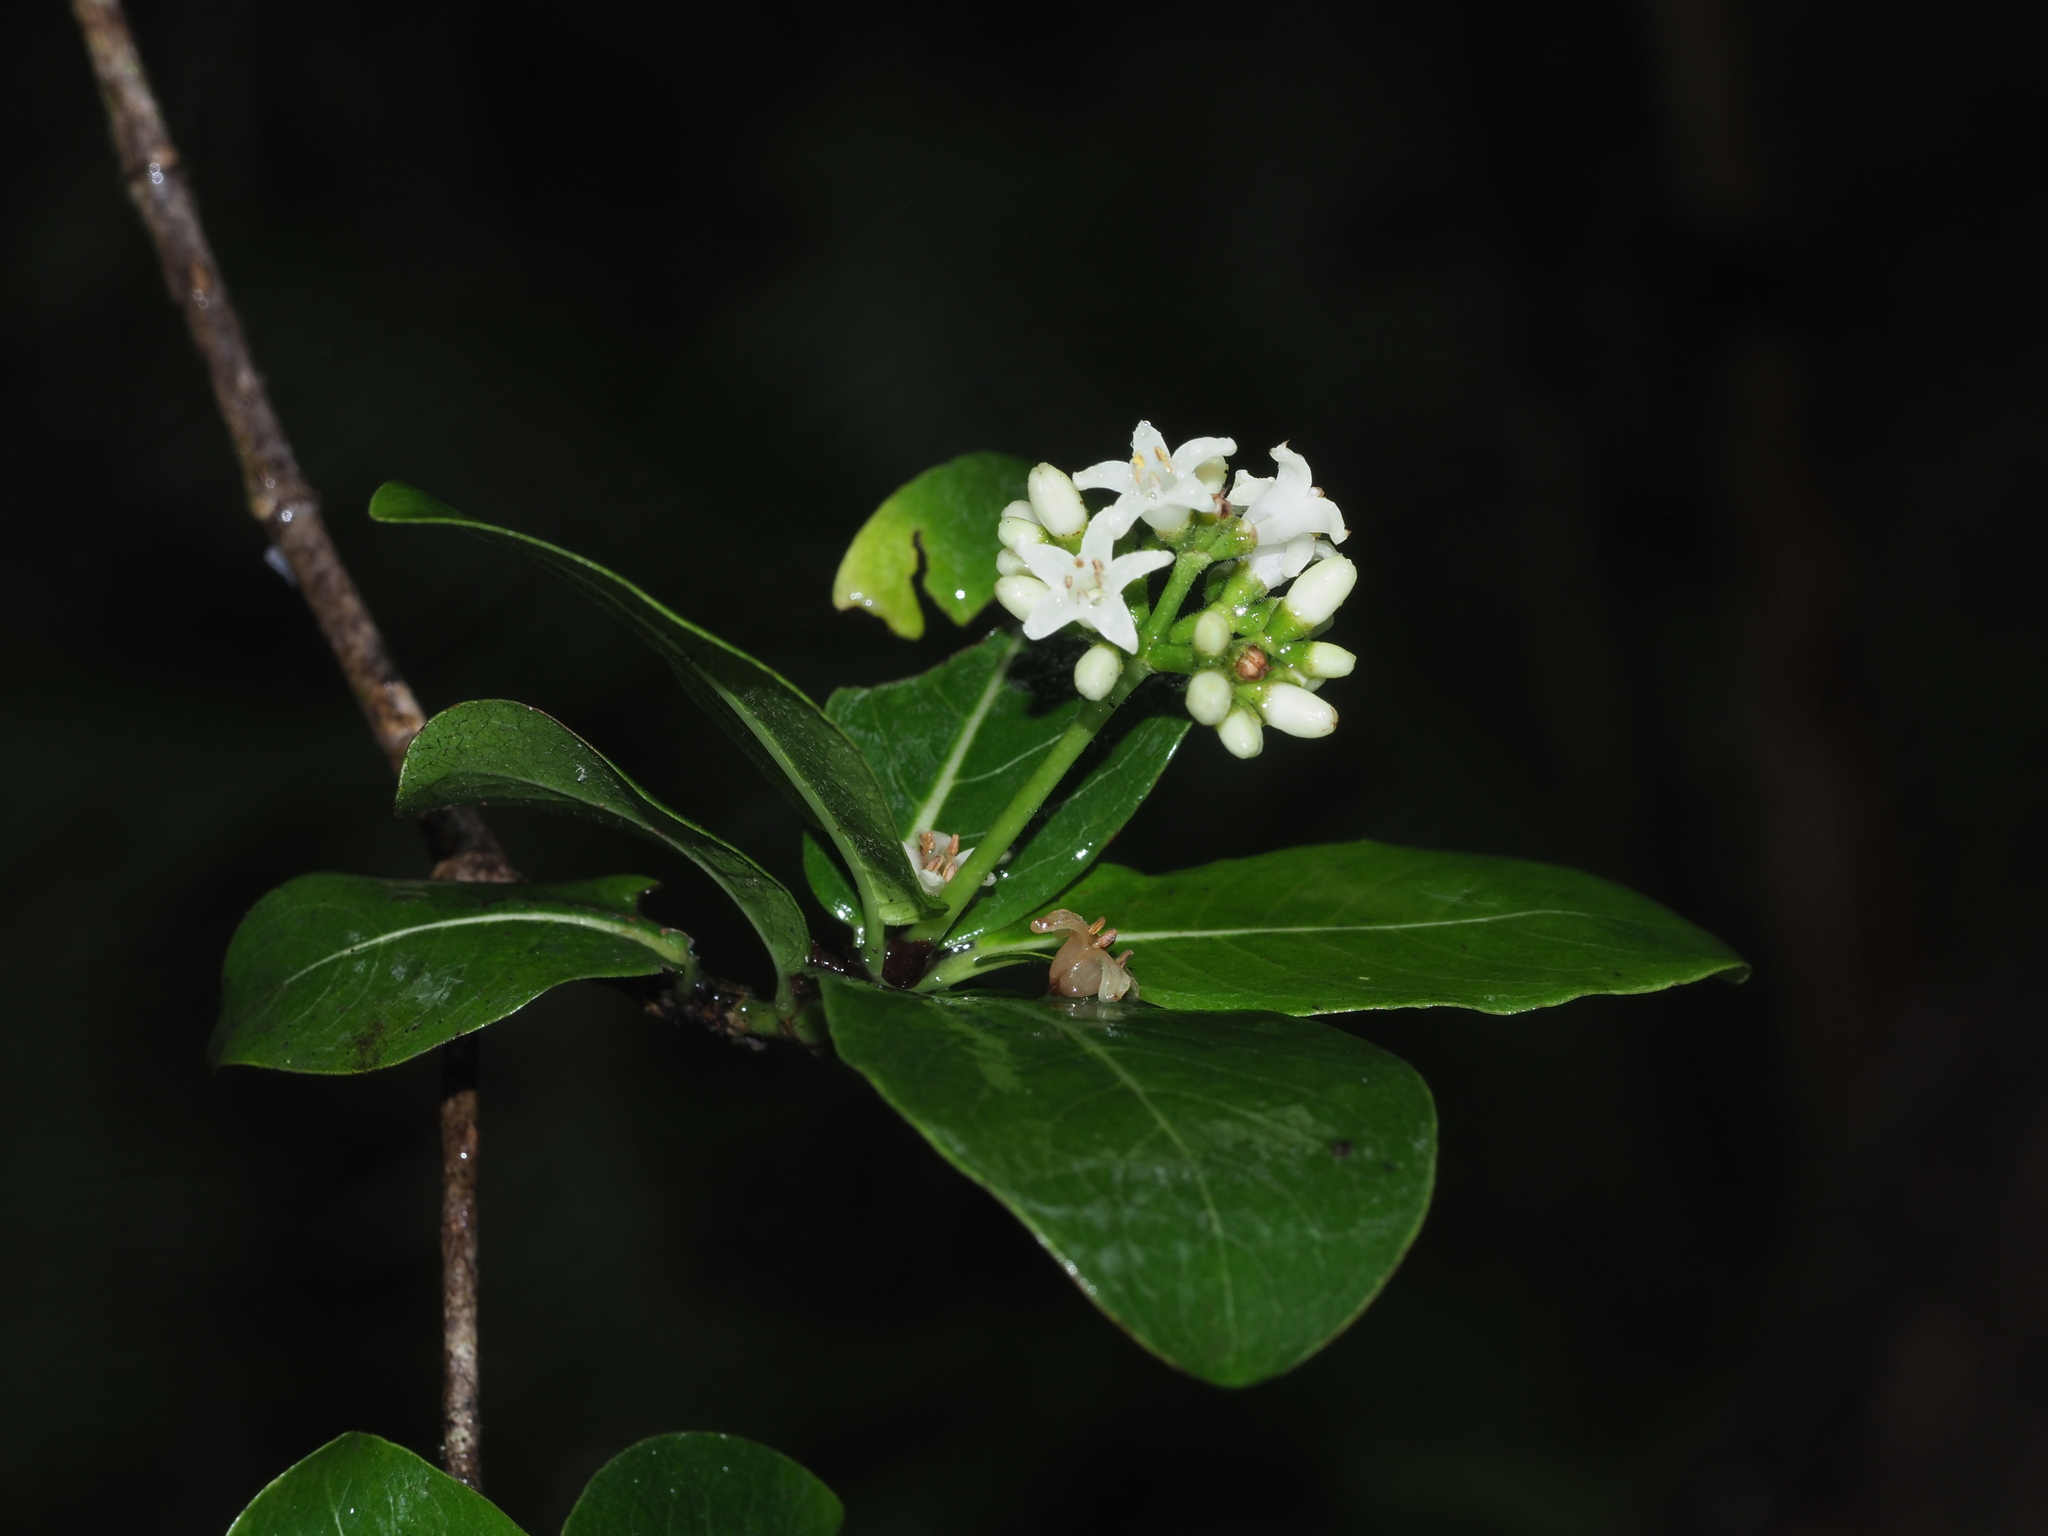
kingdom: Plantae
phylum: Tracheophyta
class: Magnoliopsida
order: Gentianales
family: Rubiaceae
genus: Psychotria
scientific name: Psychotria hathewayi
